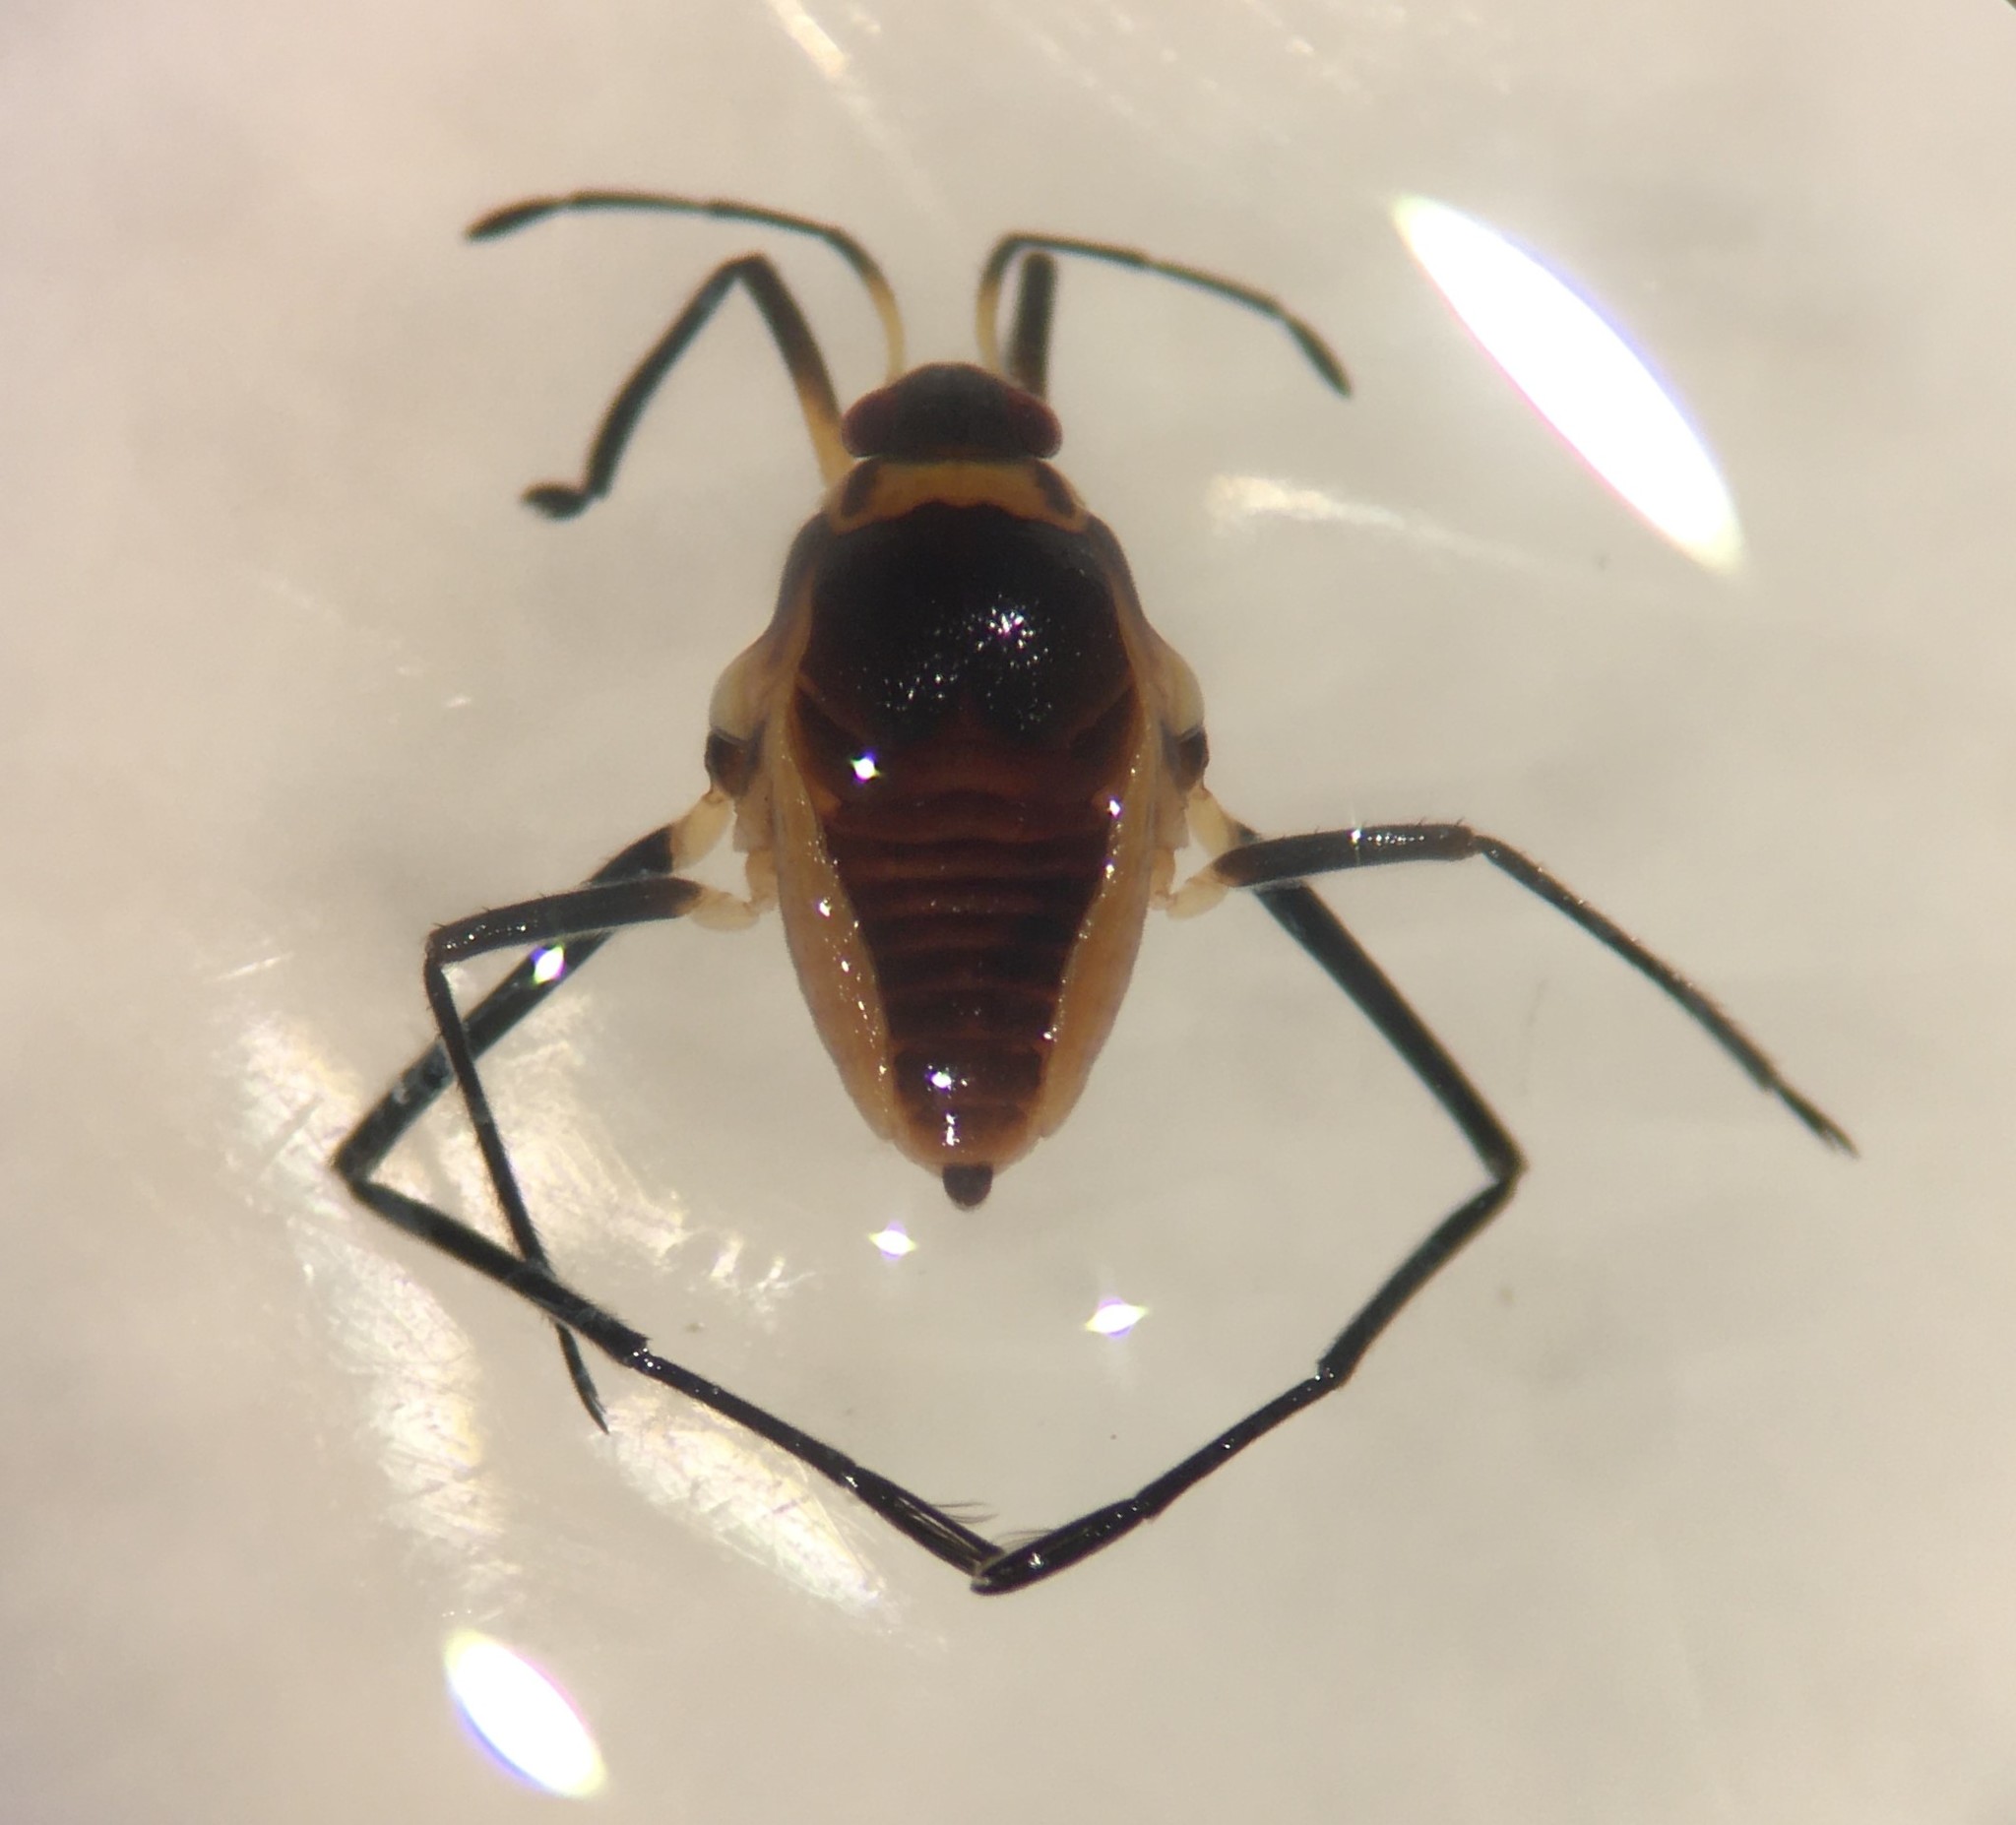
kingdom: Animalia
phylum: Arthropoda
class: Insecta
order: Hemiptera
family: Veliidae
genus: Rhagovelia
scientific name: Rhagovelia plumbea
